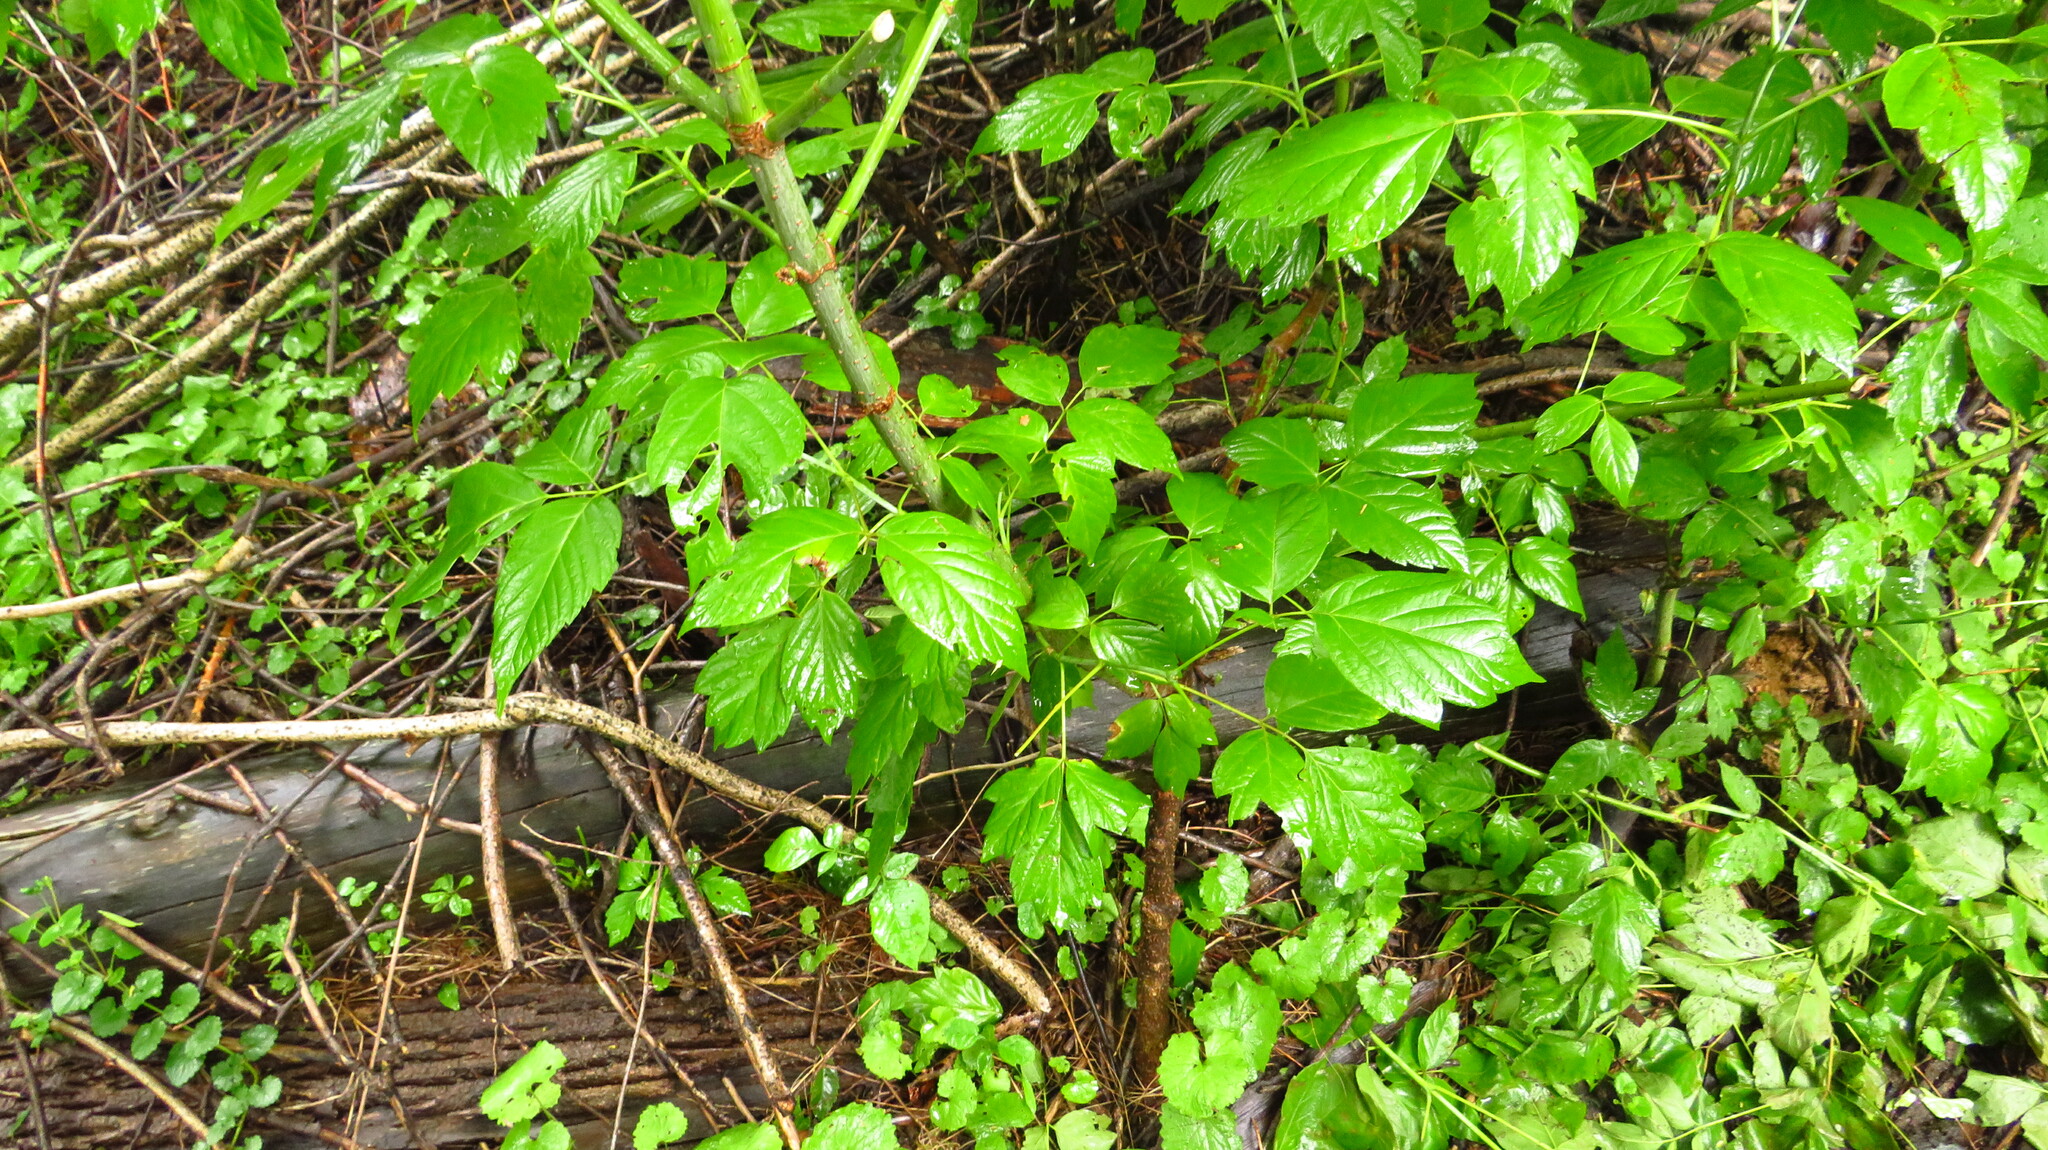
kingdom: Plantae
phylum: Tracheophyta
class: Magnoliopsida
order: Sapindales
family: Sapindaceae
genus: Acer
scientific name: Acer negundo
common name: Ashleaf maple
